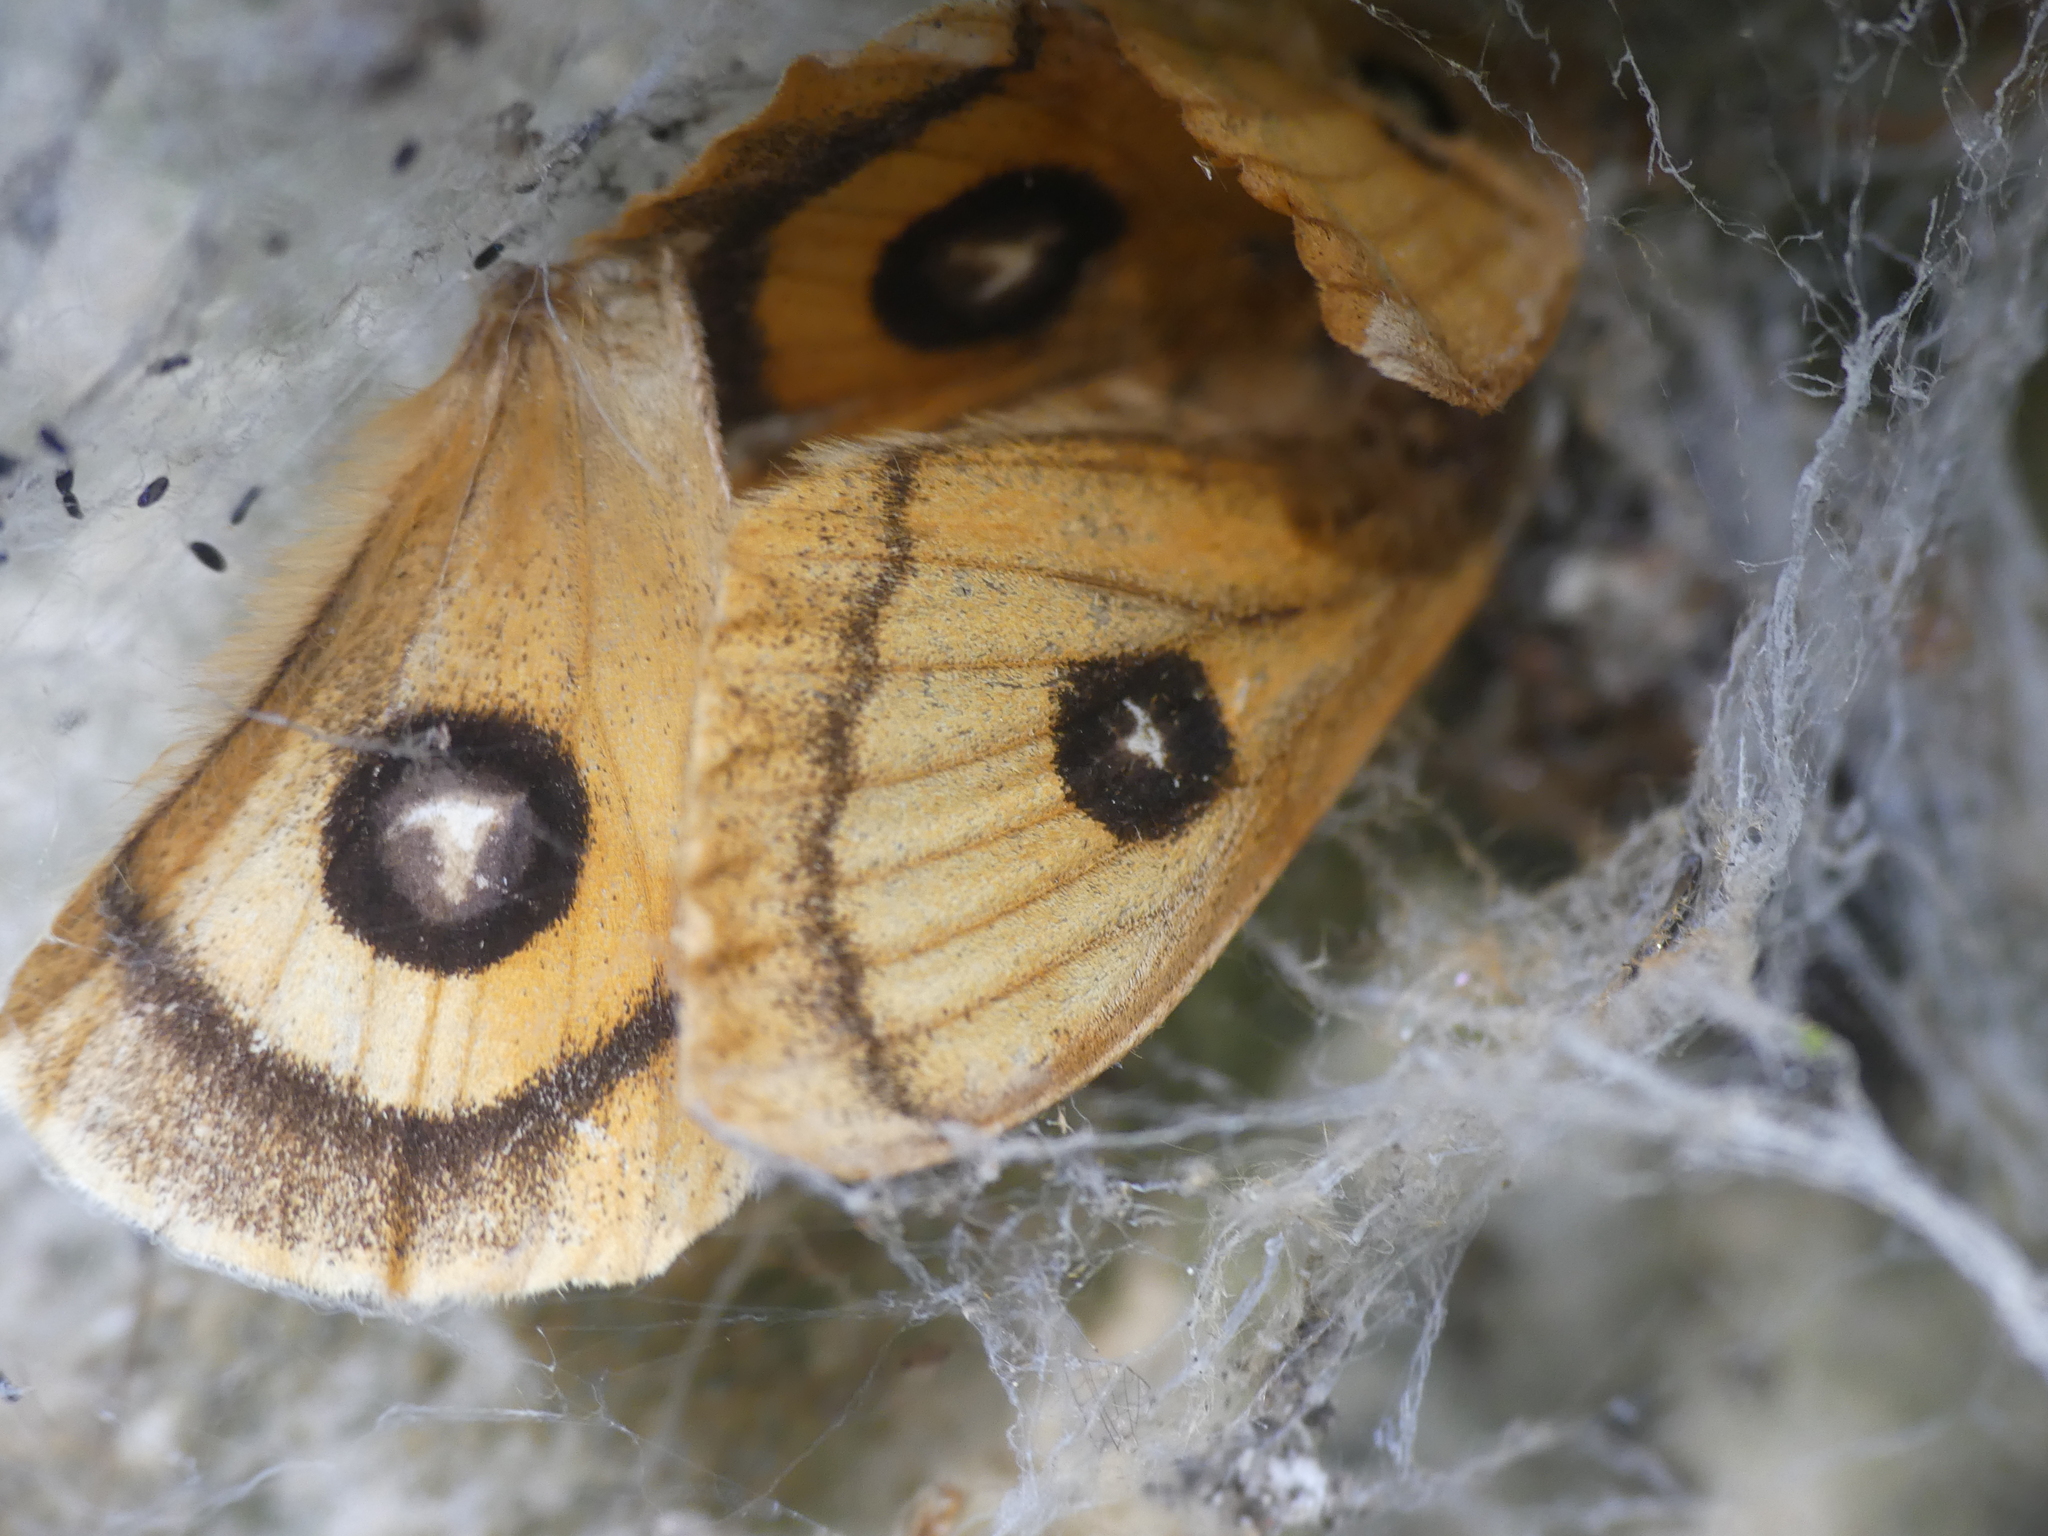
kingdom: Animalia
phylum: Arthropoda
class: Insecta
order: Lepidoptera
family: Saturniidae
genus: Aglia
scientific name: Aglia tau
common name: Tau emperor
